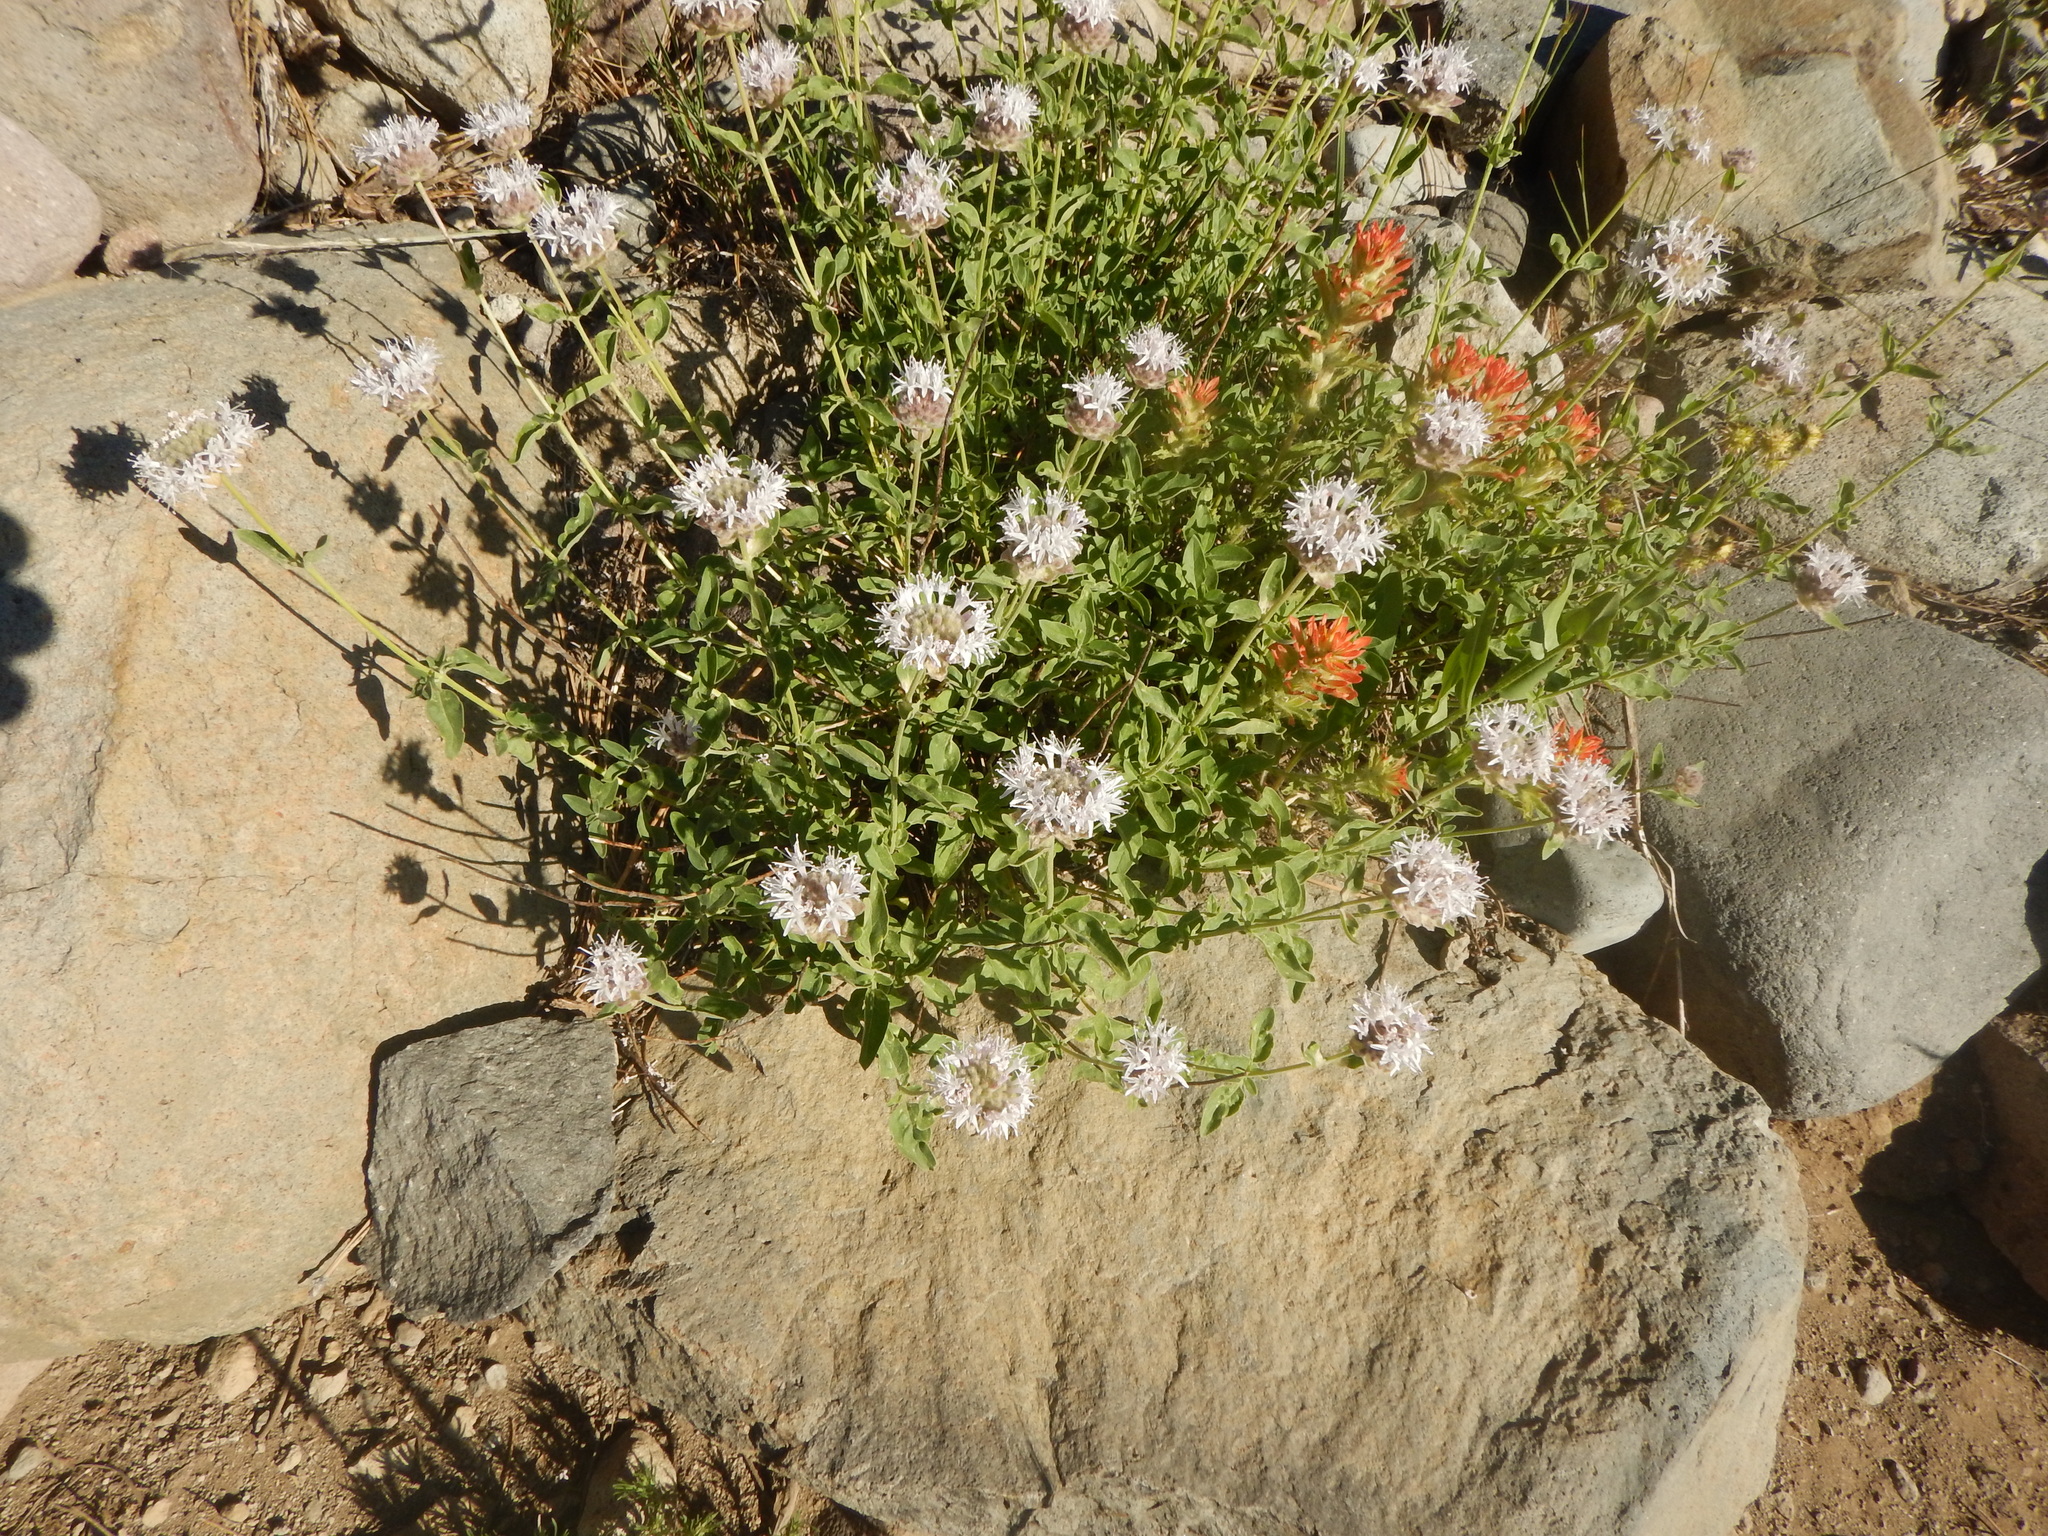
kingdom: Plantae
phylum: Tracheophyta
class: Magnoliopsida
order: Lamiales
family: Lamiaceae
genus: Monardella
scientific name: Monardella odoratissima
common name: Pacific monardella
